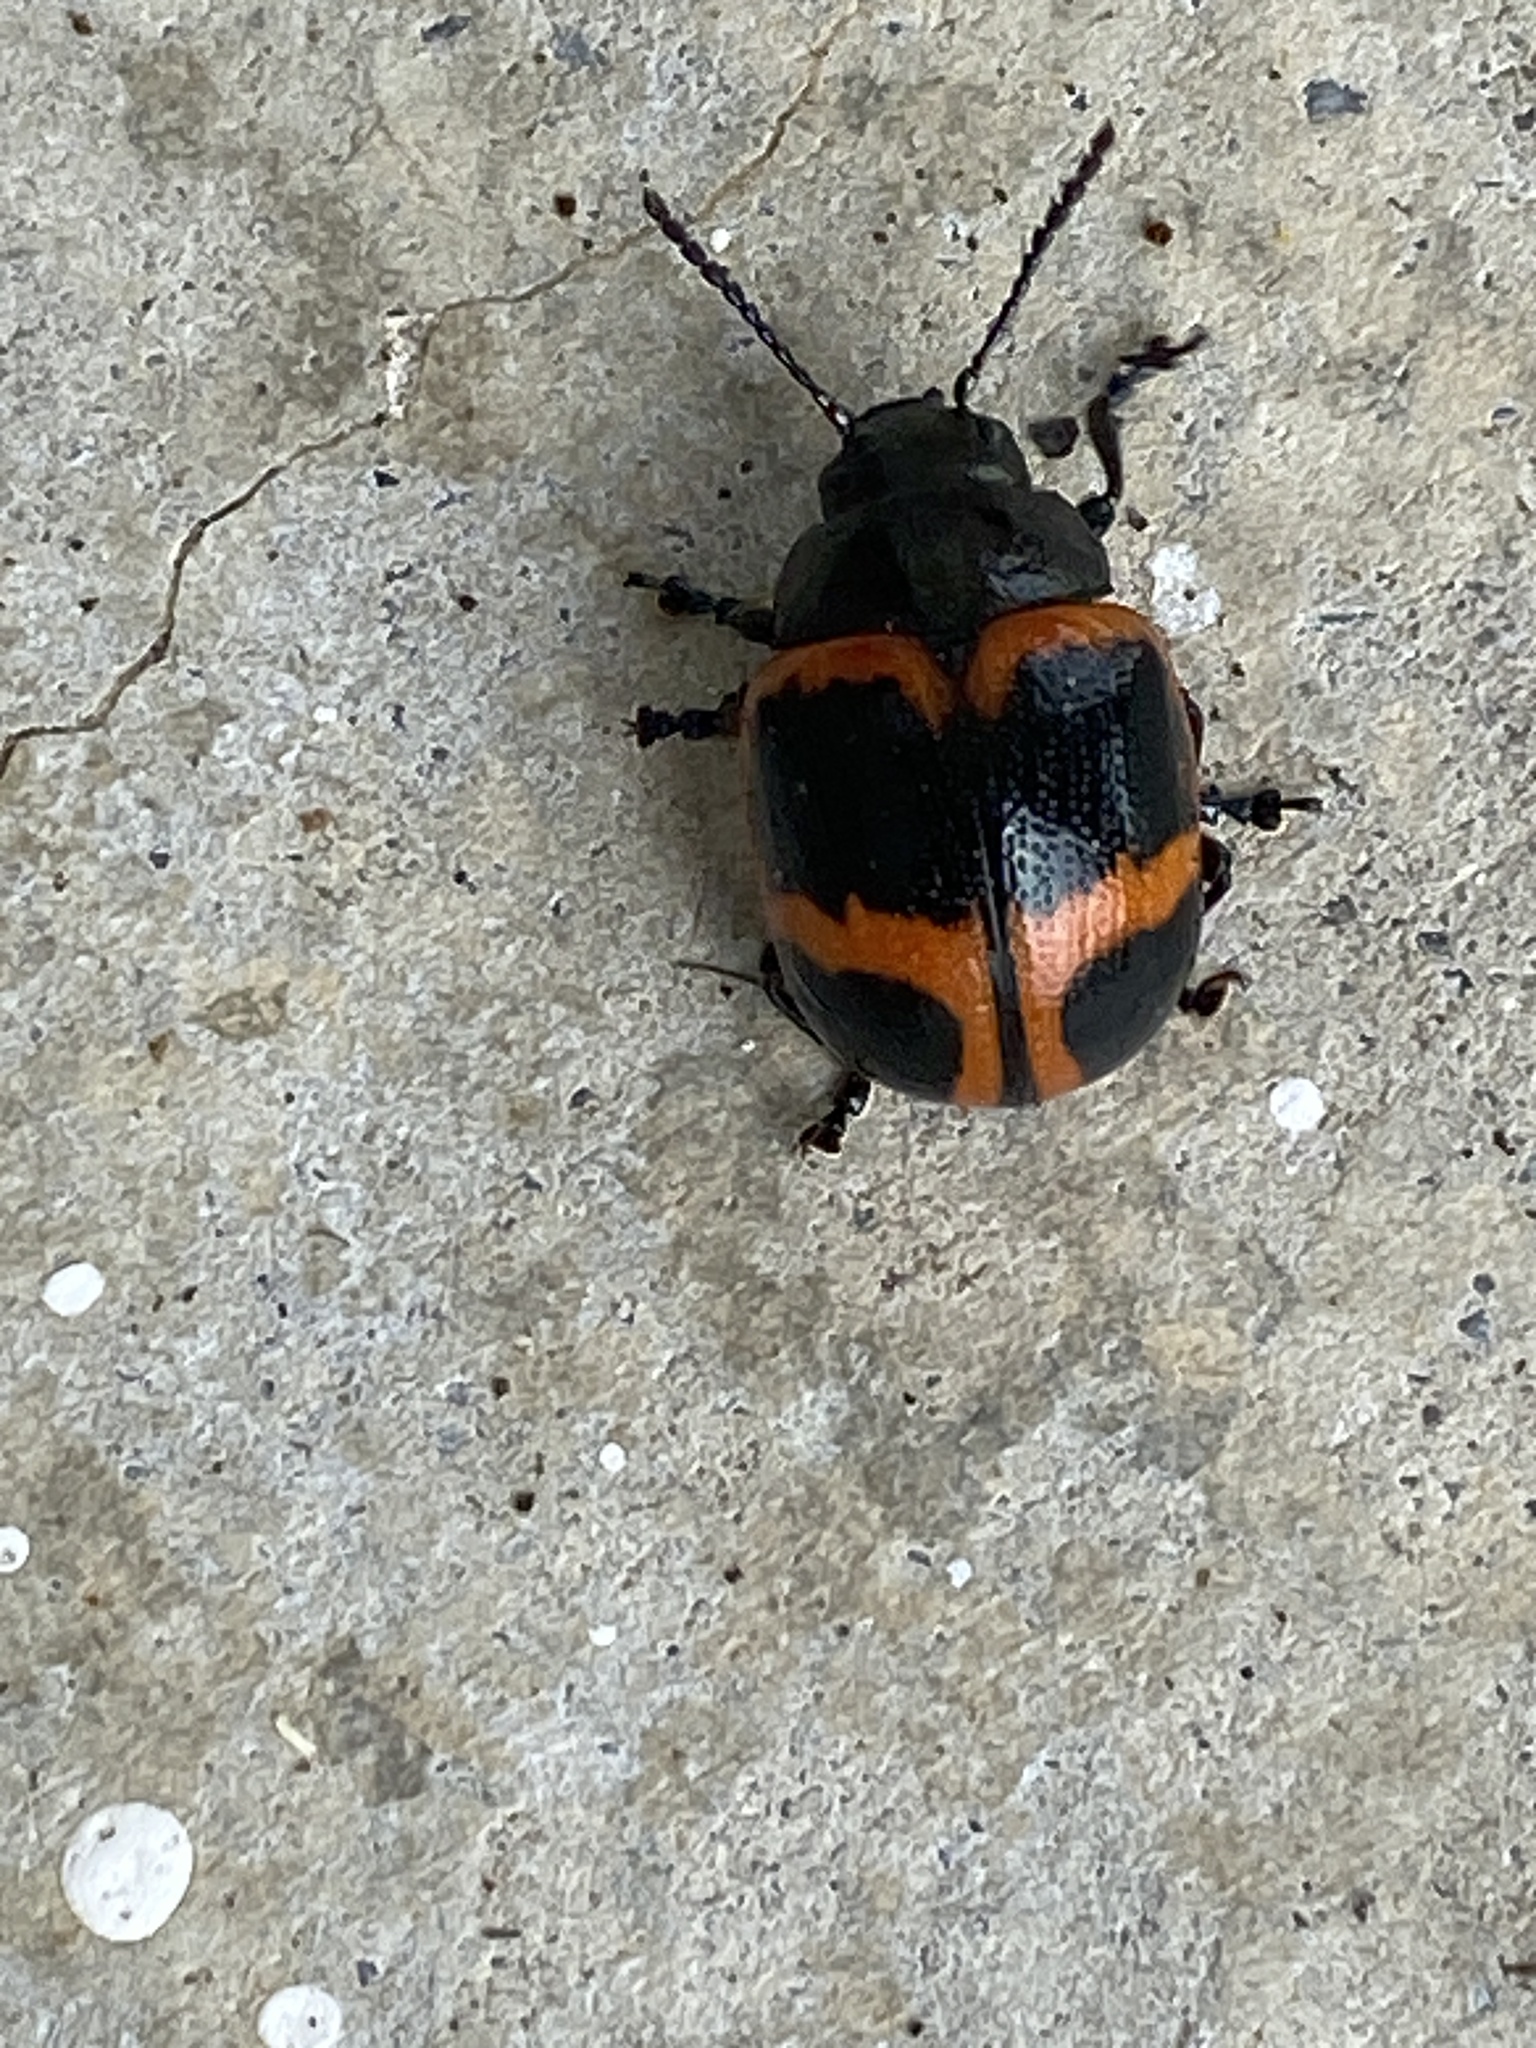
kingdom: Animalia
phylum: Arthropoda
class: Insecta
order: Coleoptera
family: Chrysomelidae
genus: Labidomera
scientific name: Labidomera clivicollis
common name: Swamp milkweed leaf beetle
